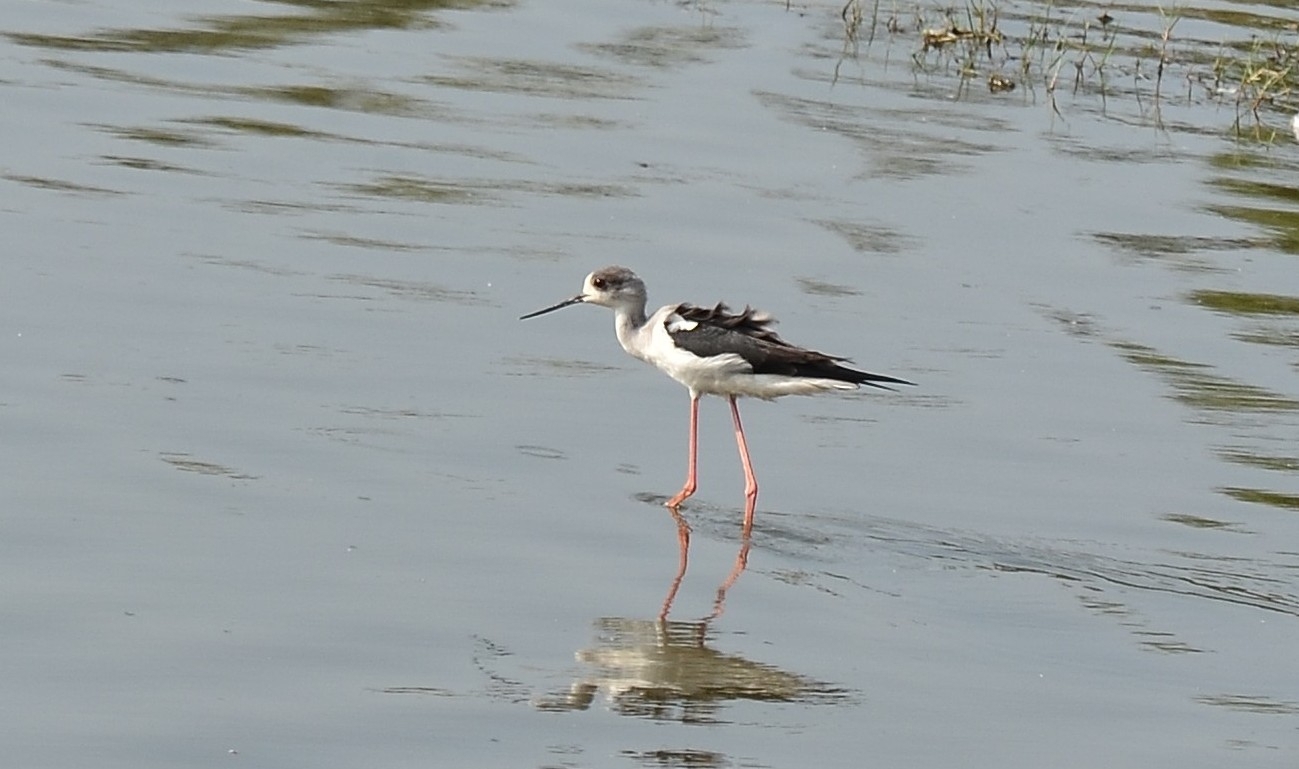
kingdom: Animalia
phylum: Chordata
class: Aves
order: Charadriiformes
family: Recurvirostridae
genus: Himantopus
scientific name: Himantopus himantopus
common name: Black-winged stilt
